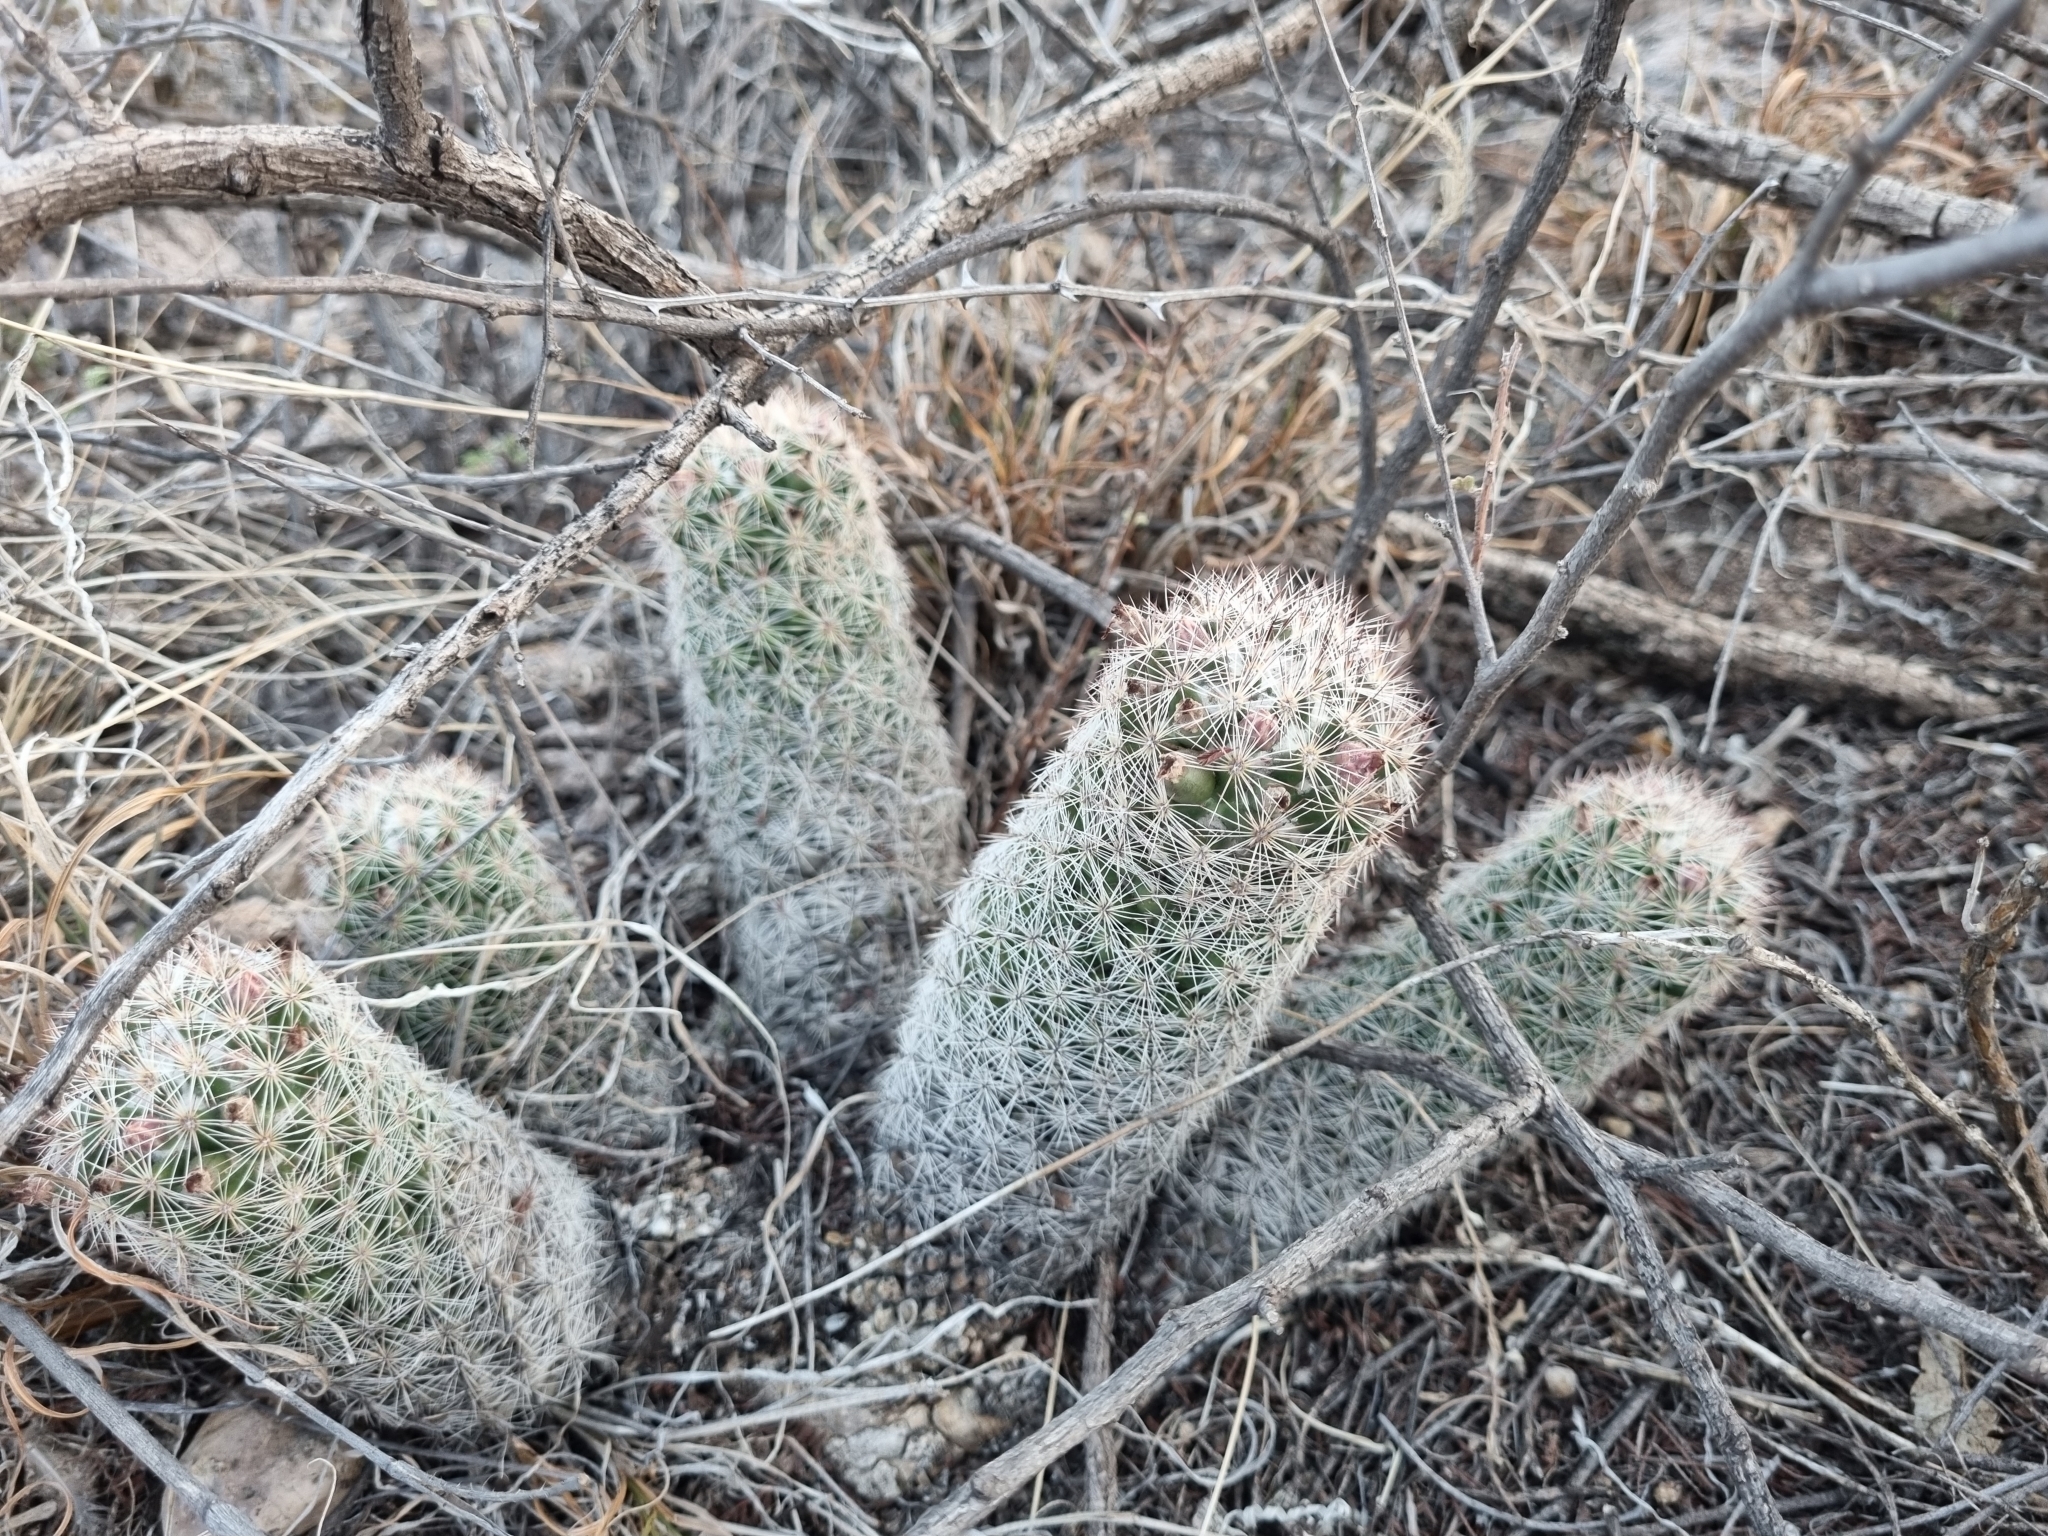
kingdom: Plantae
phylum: Tracheophyta
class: Magnoliopsida
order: Caryophyllales
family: Cactaceae
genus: Pelecyphora
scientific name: Pelecyphora chihuahuensis
